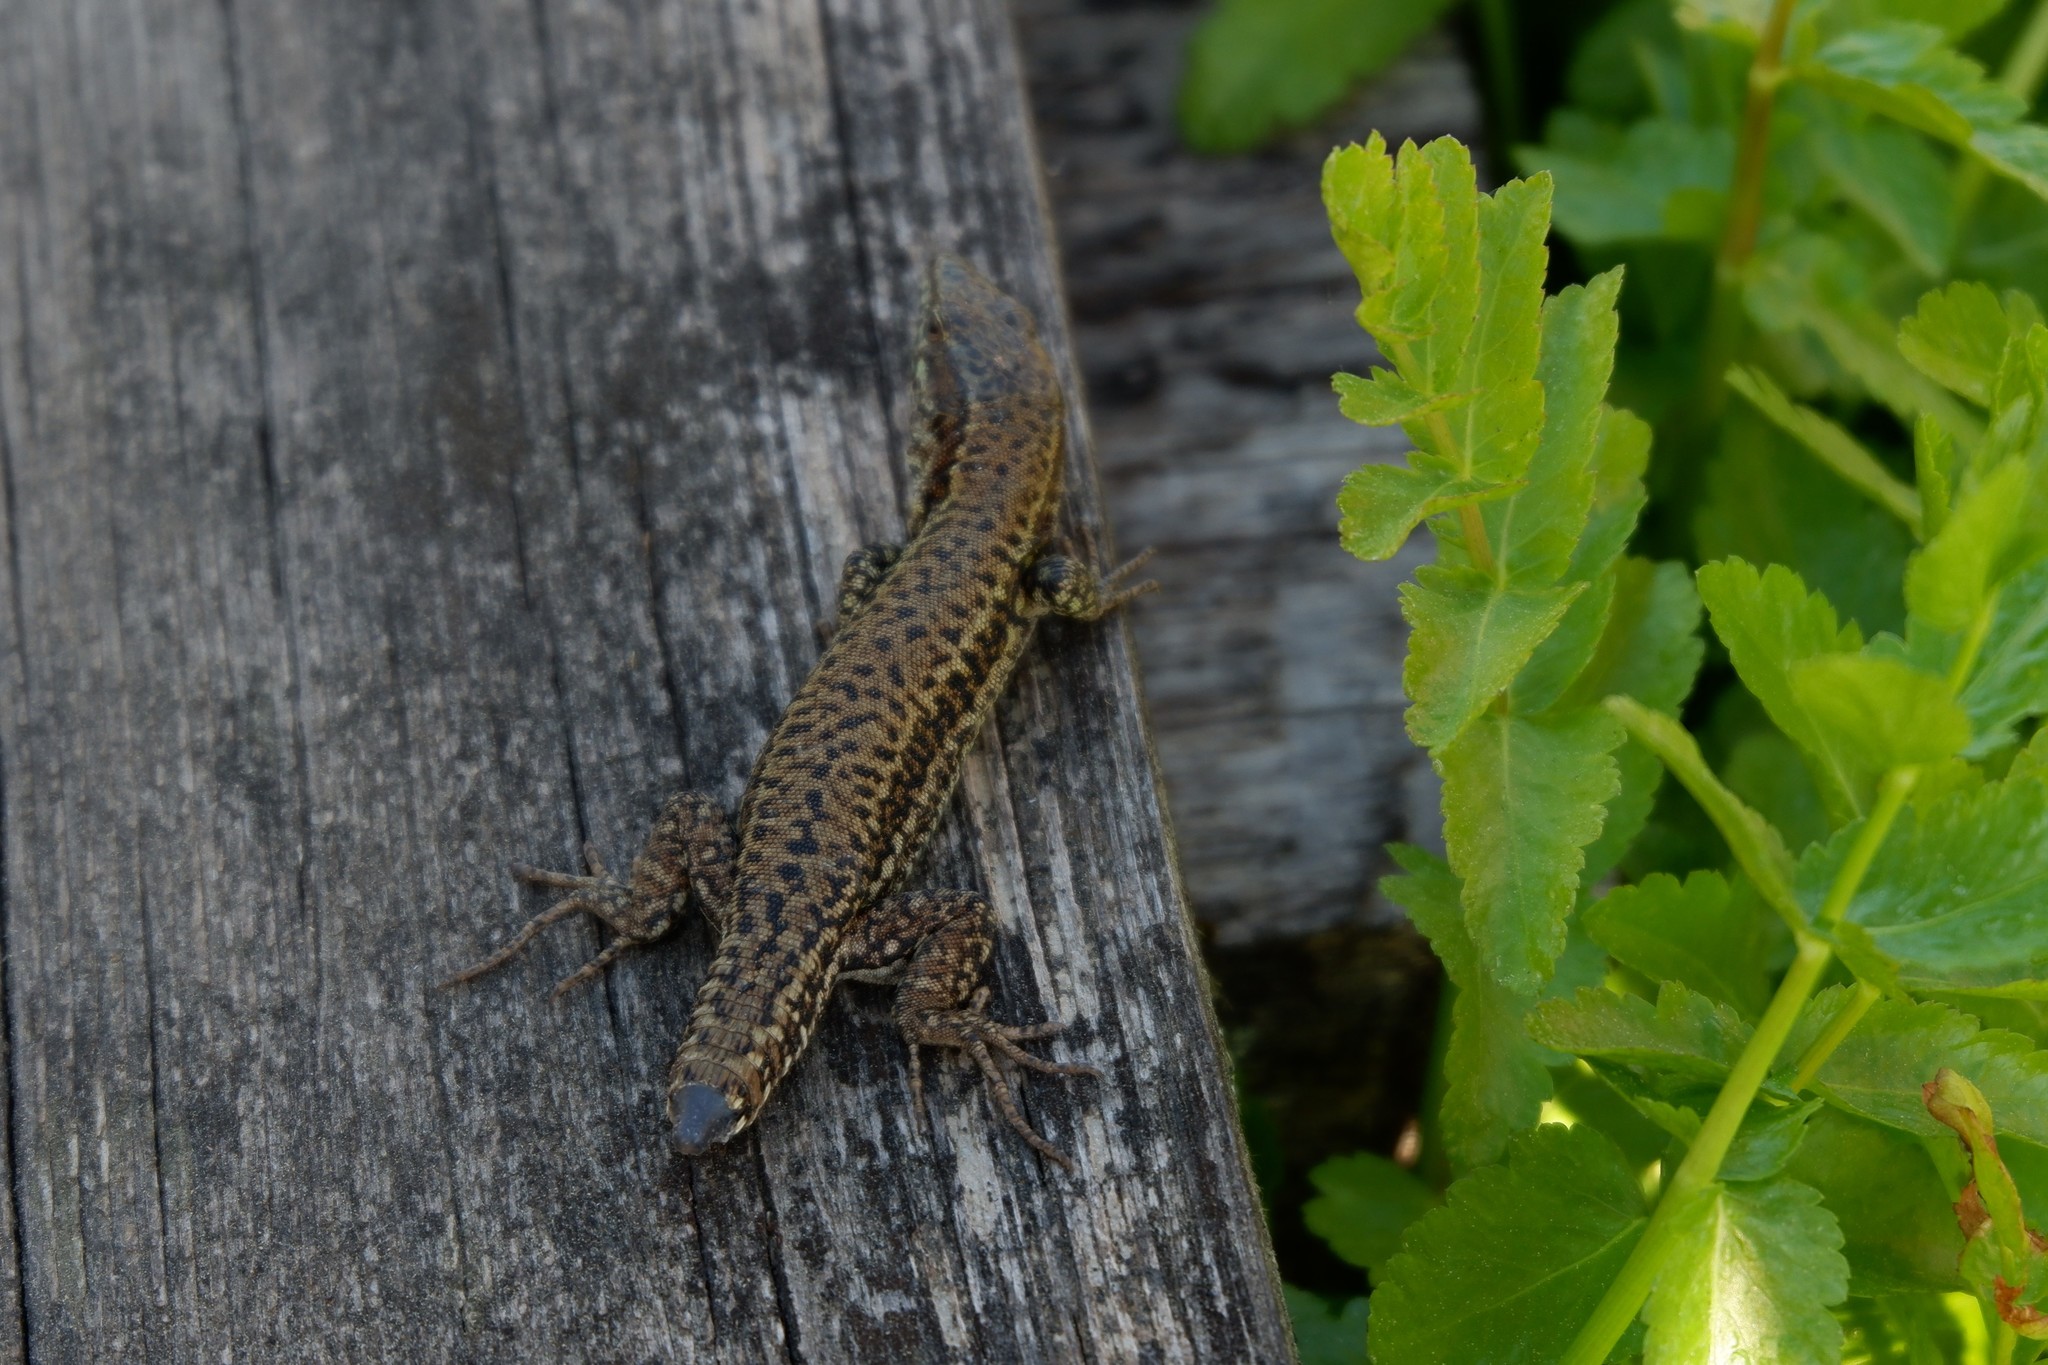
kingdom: Animalia
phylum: Chordata
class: Squamata
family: Lacertidae
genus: Podarcis
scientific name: Podarcis muralis
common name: Common wall lizard
